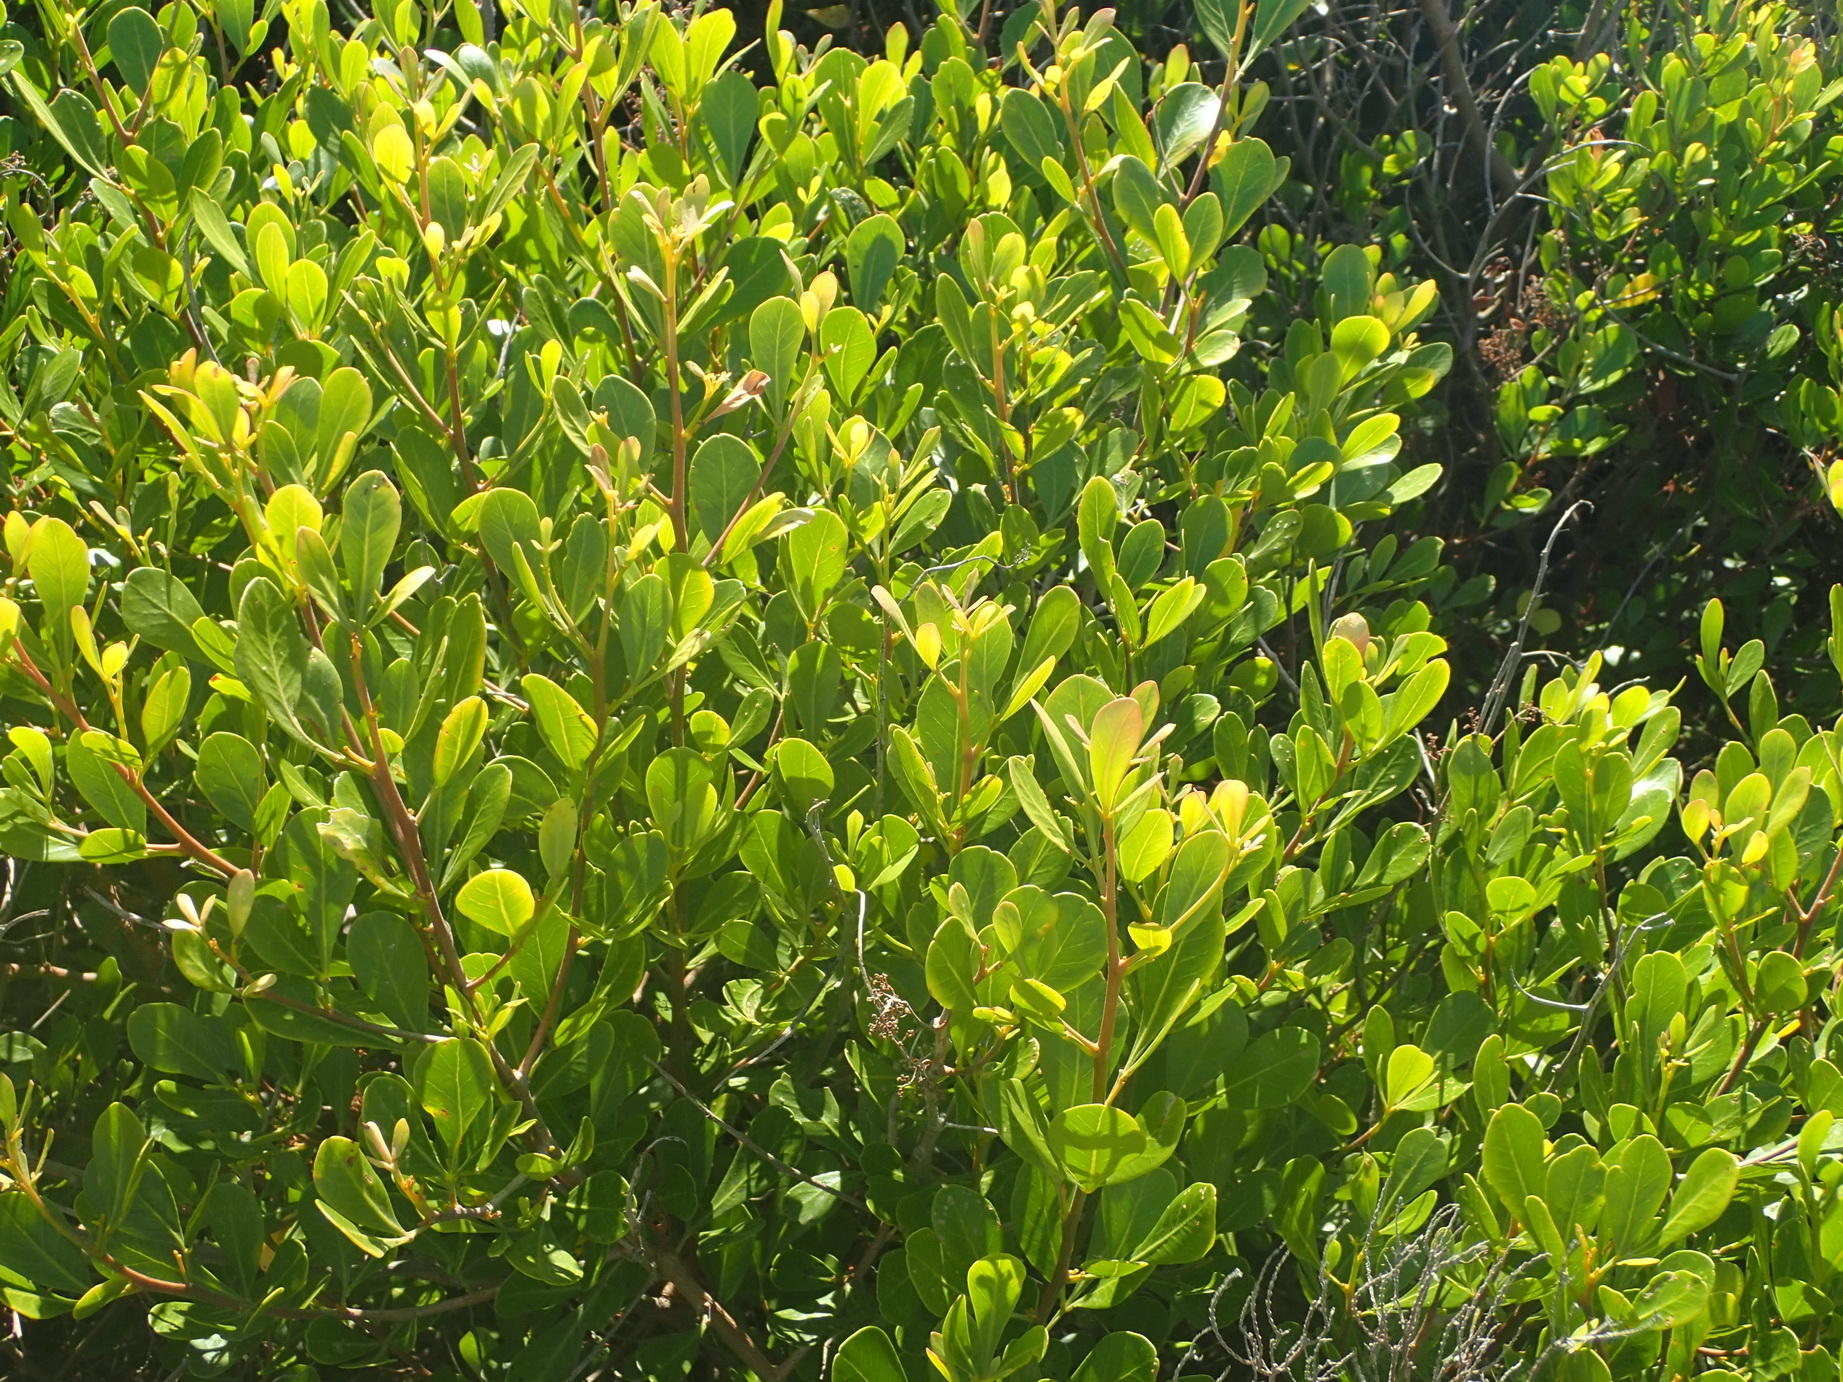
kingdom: Plantae
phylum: Tracheophyta
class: Magnoliopsida
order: Sapindales
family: Anacardiaceae
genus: Searsia
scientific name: Searsia glauca
